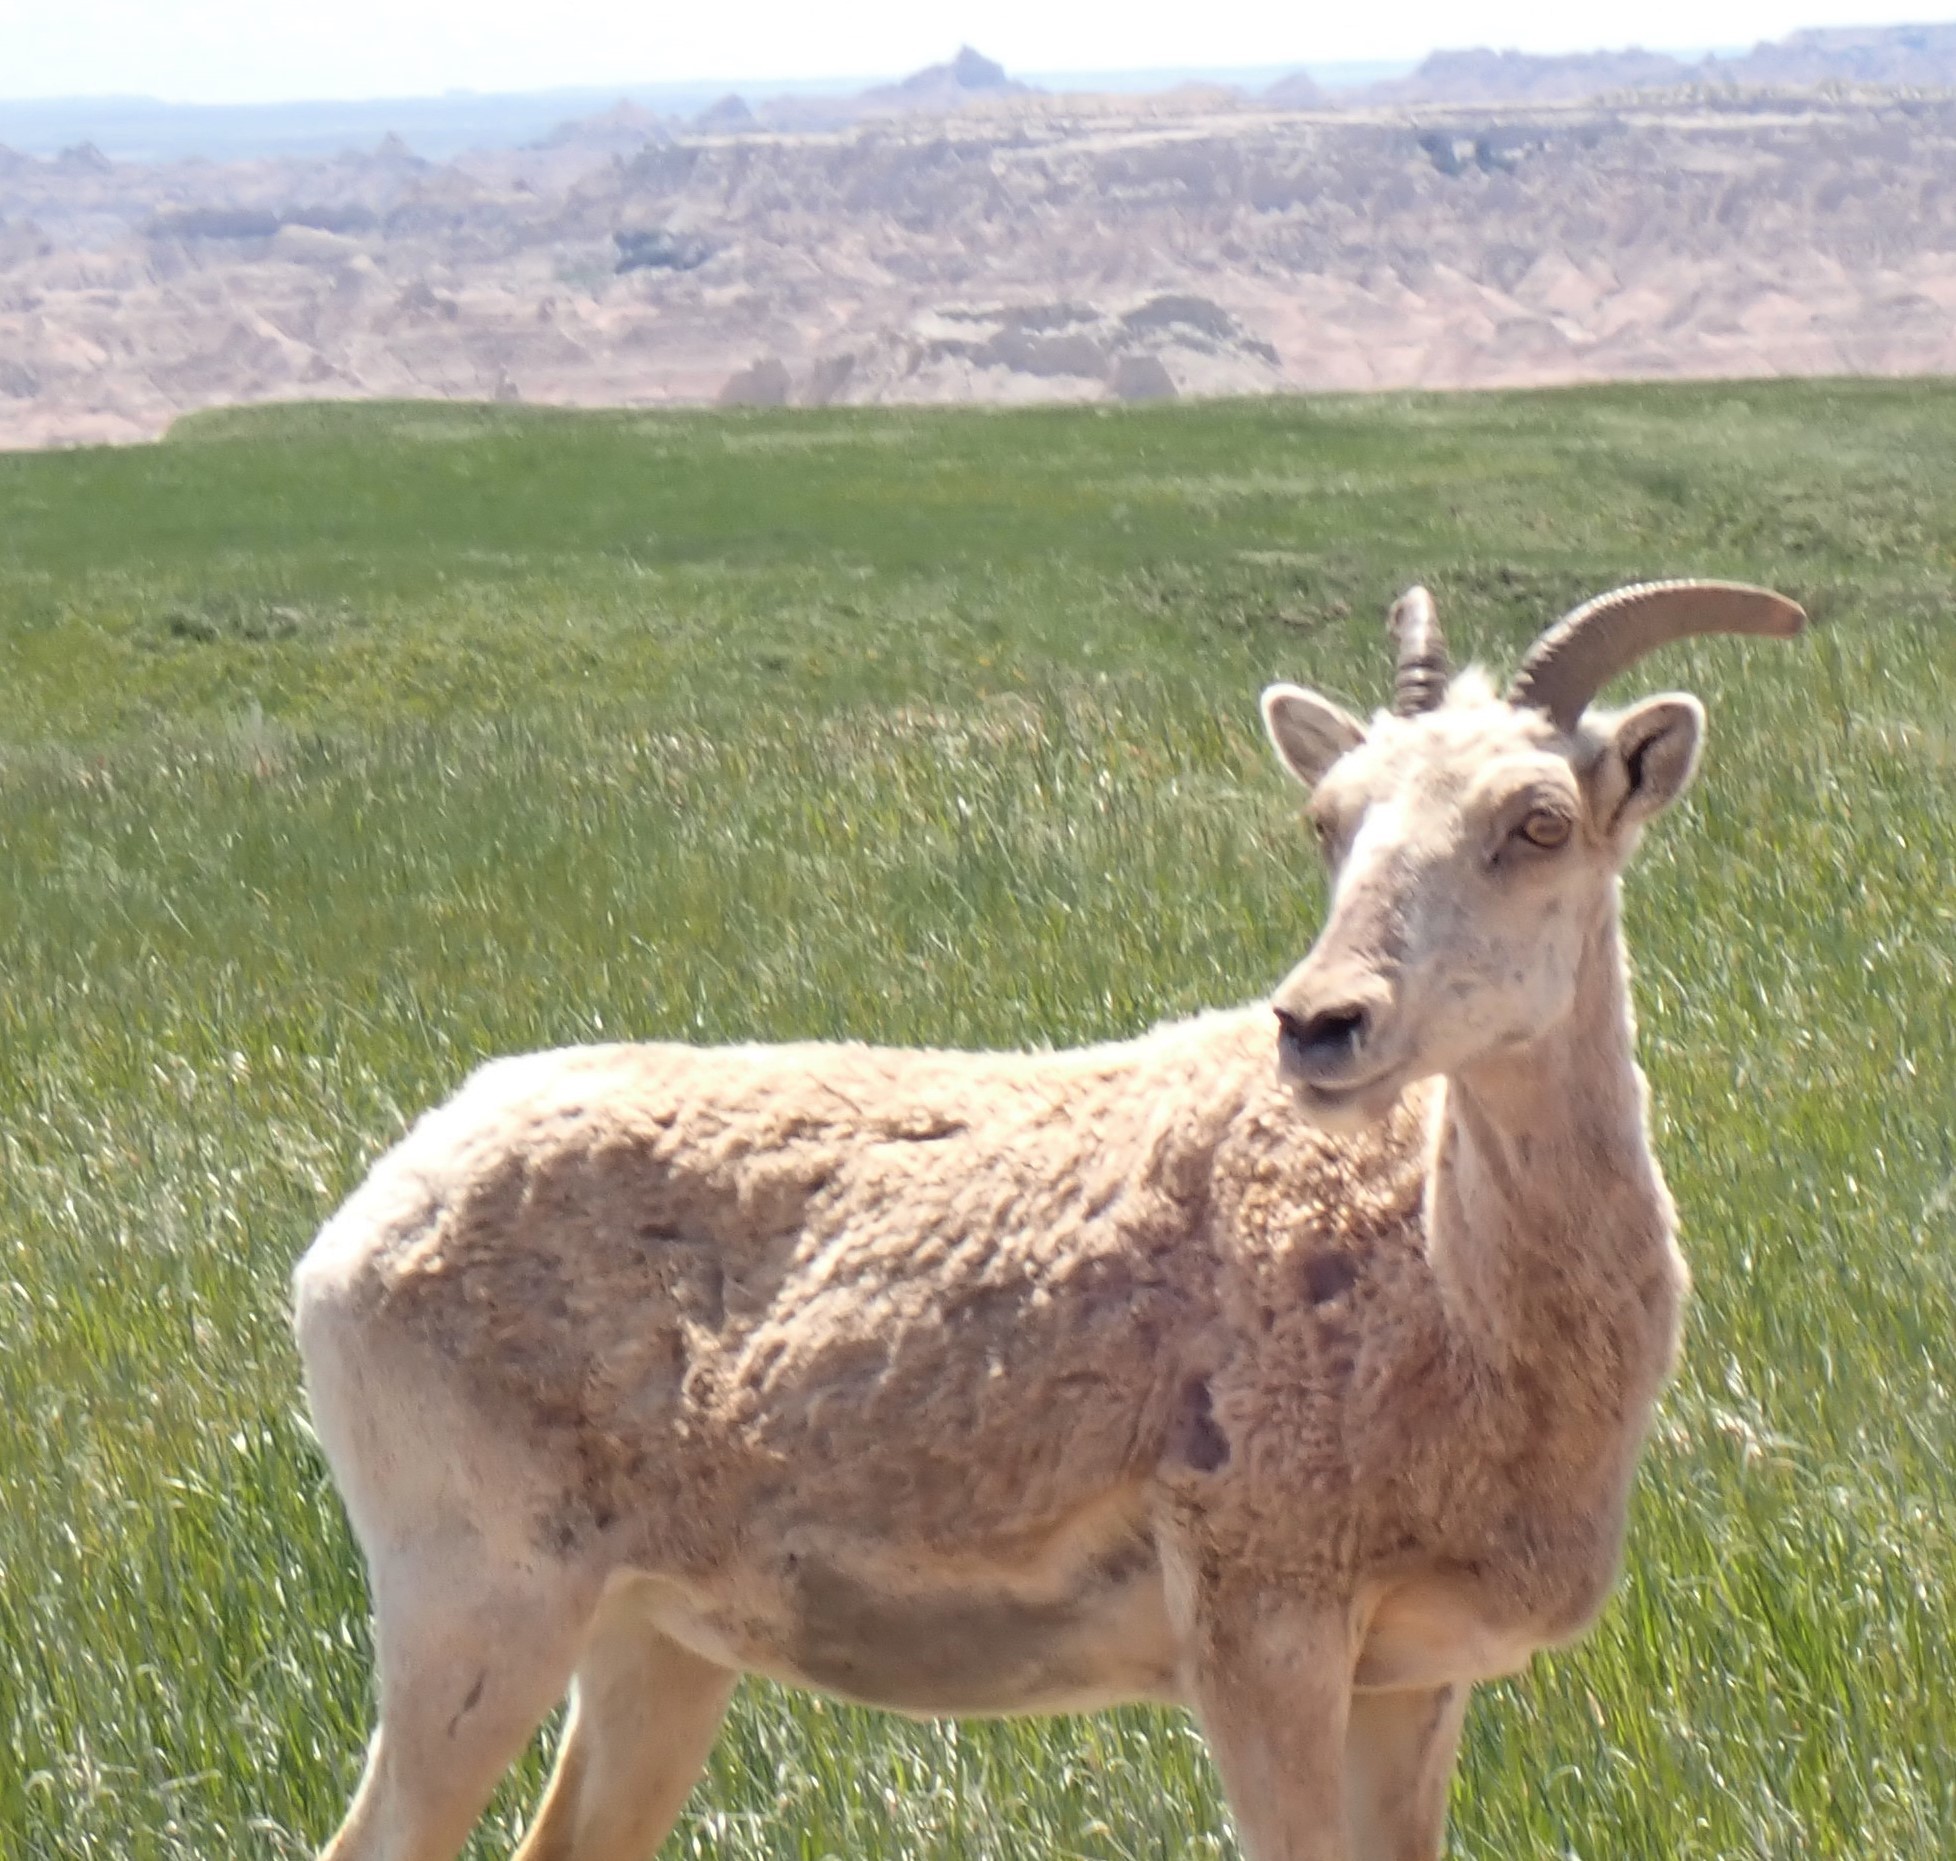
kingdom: Animalia
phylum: Chordata
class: Mammalia
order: Artiodactyla
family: Bovidae
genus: Ovis
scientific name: Ovis canadensis
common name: Bighorn sheep
